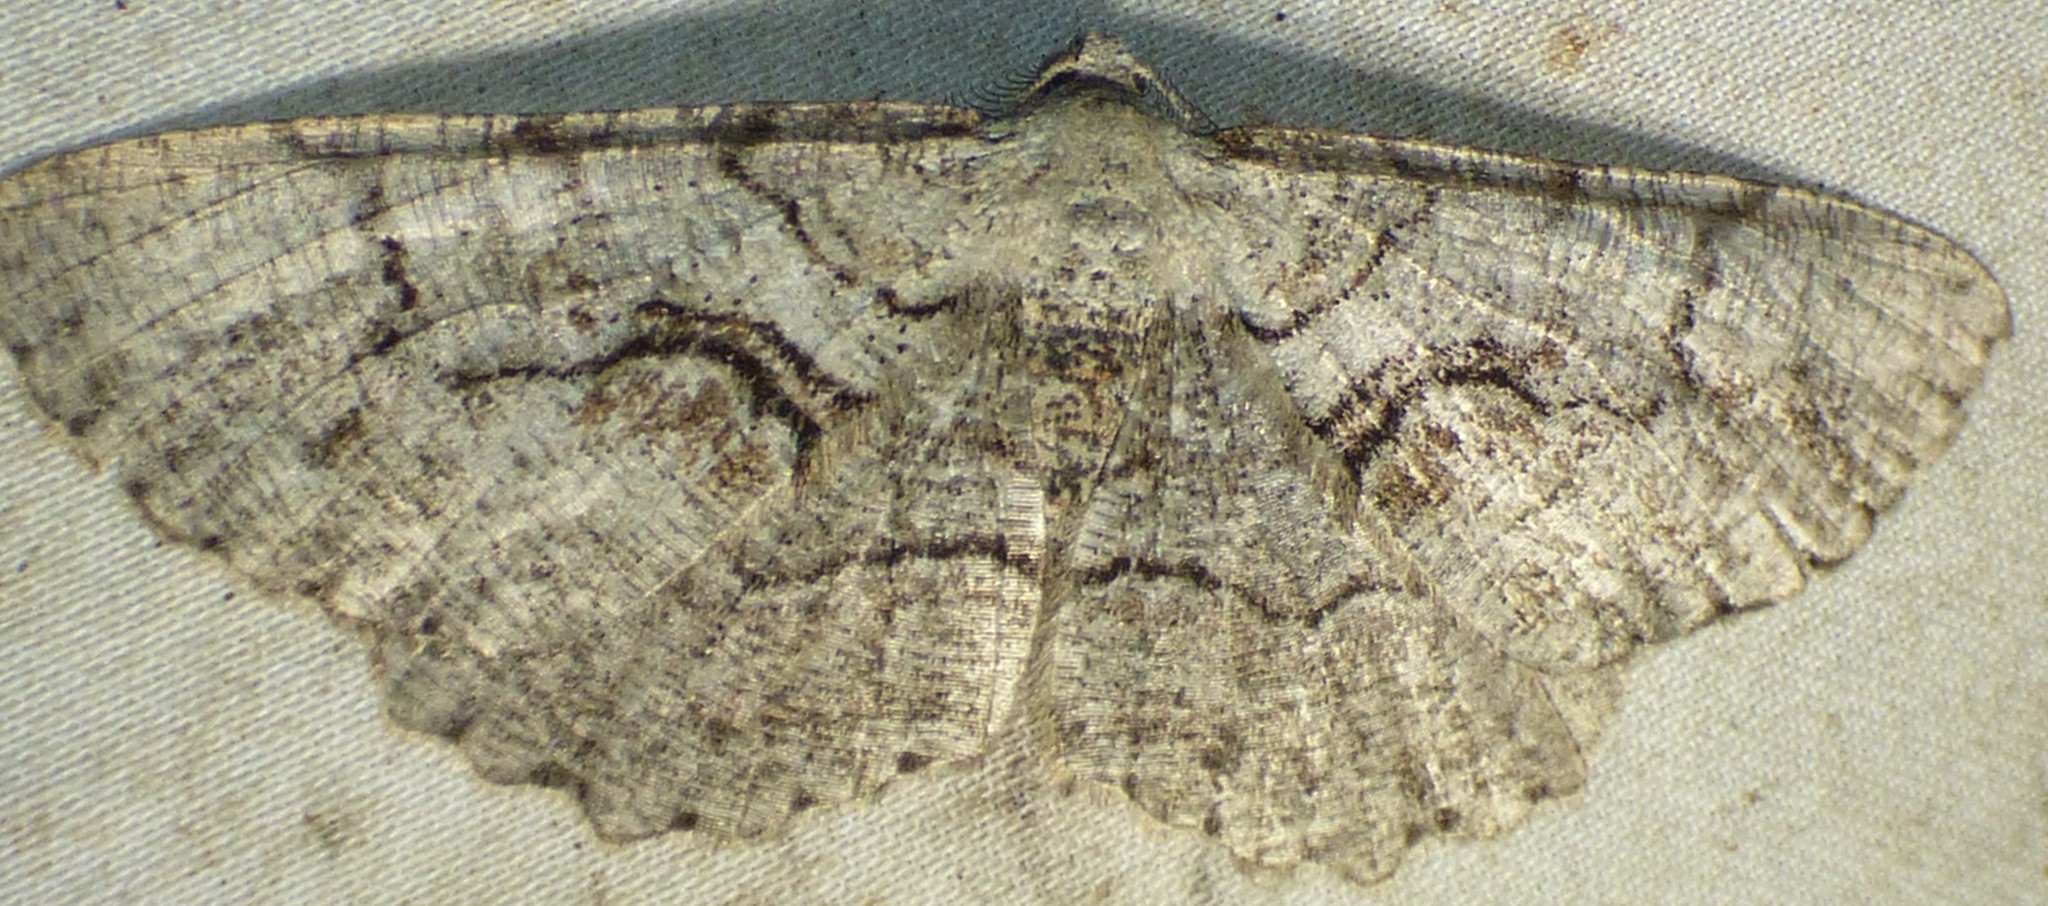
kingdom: Animalia
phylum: Arthropoda
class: Insecta
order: Lepidoptera
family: Geometridae
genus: Cymatophora
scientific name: Cymatophora approximaria
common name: Giant gray moth
